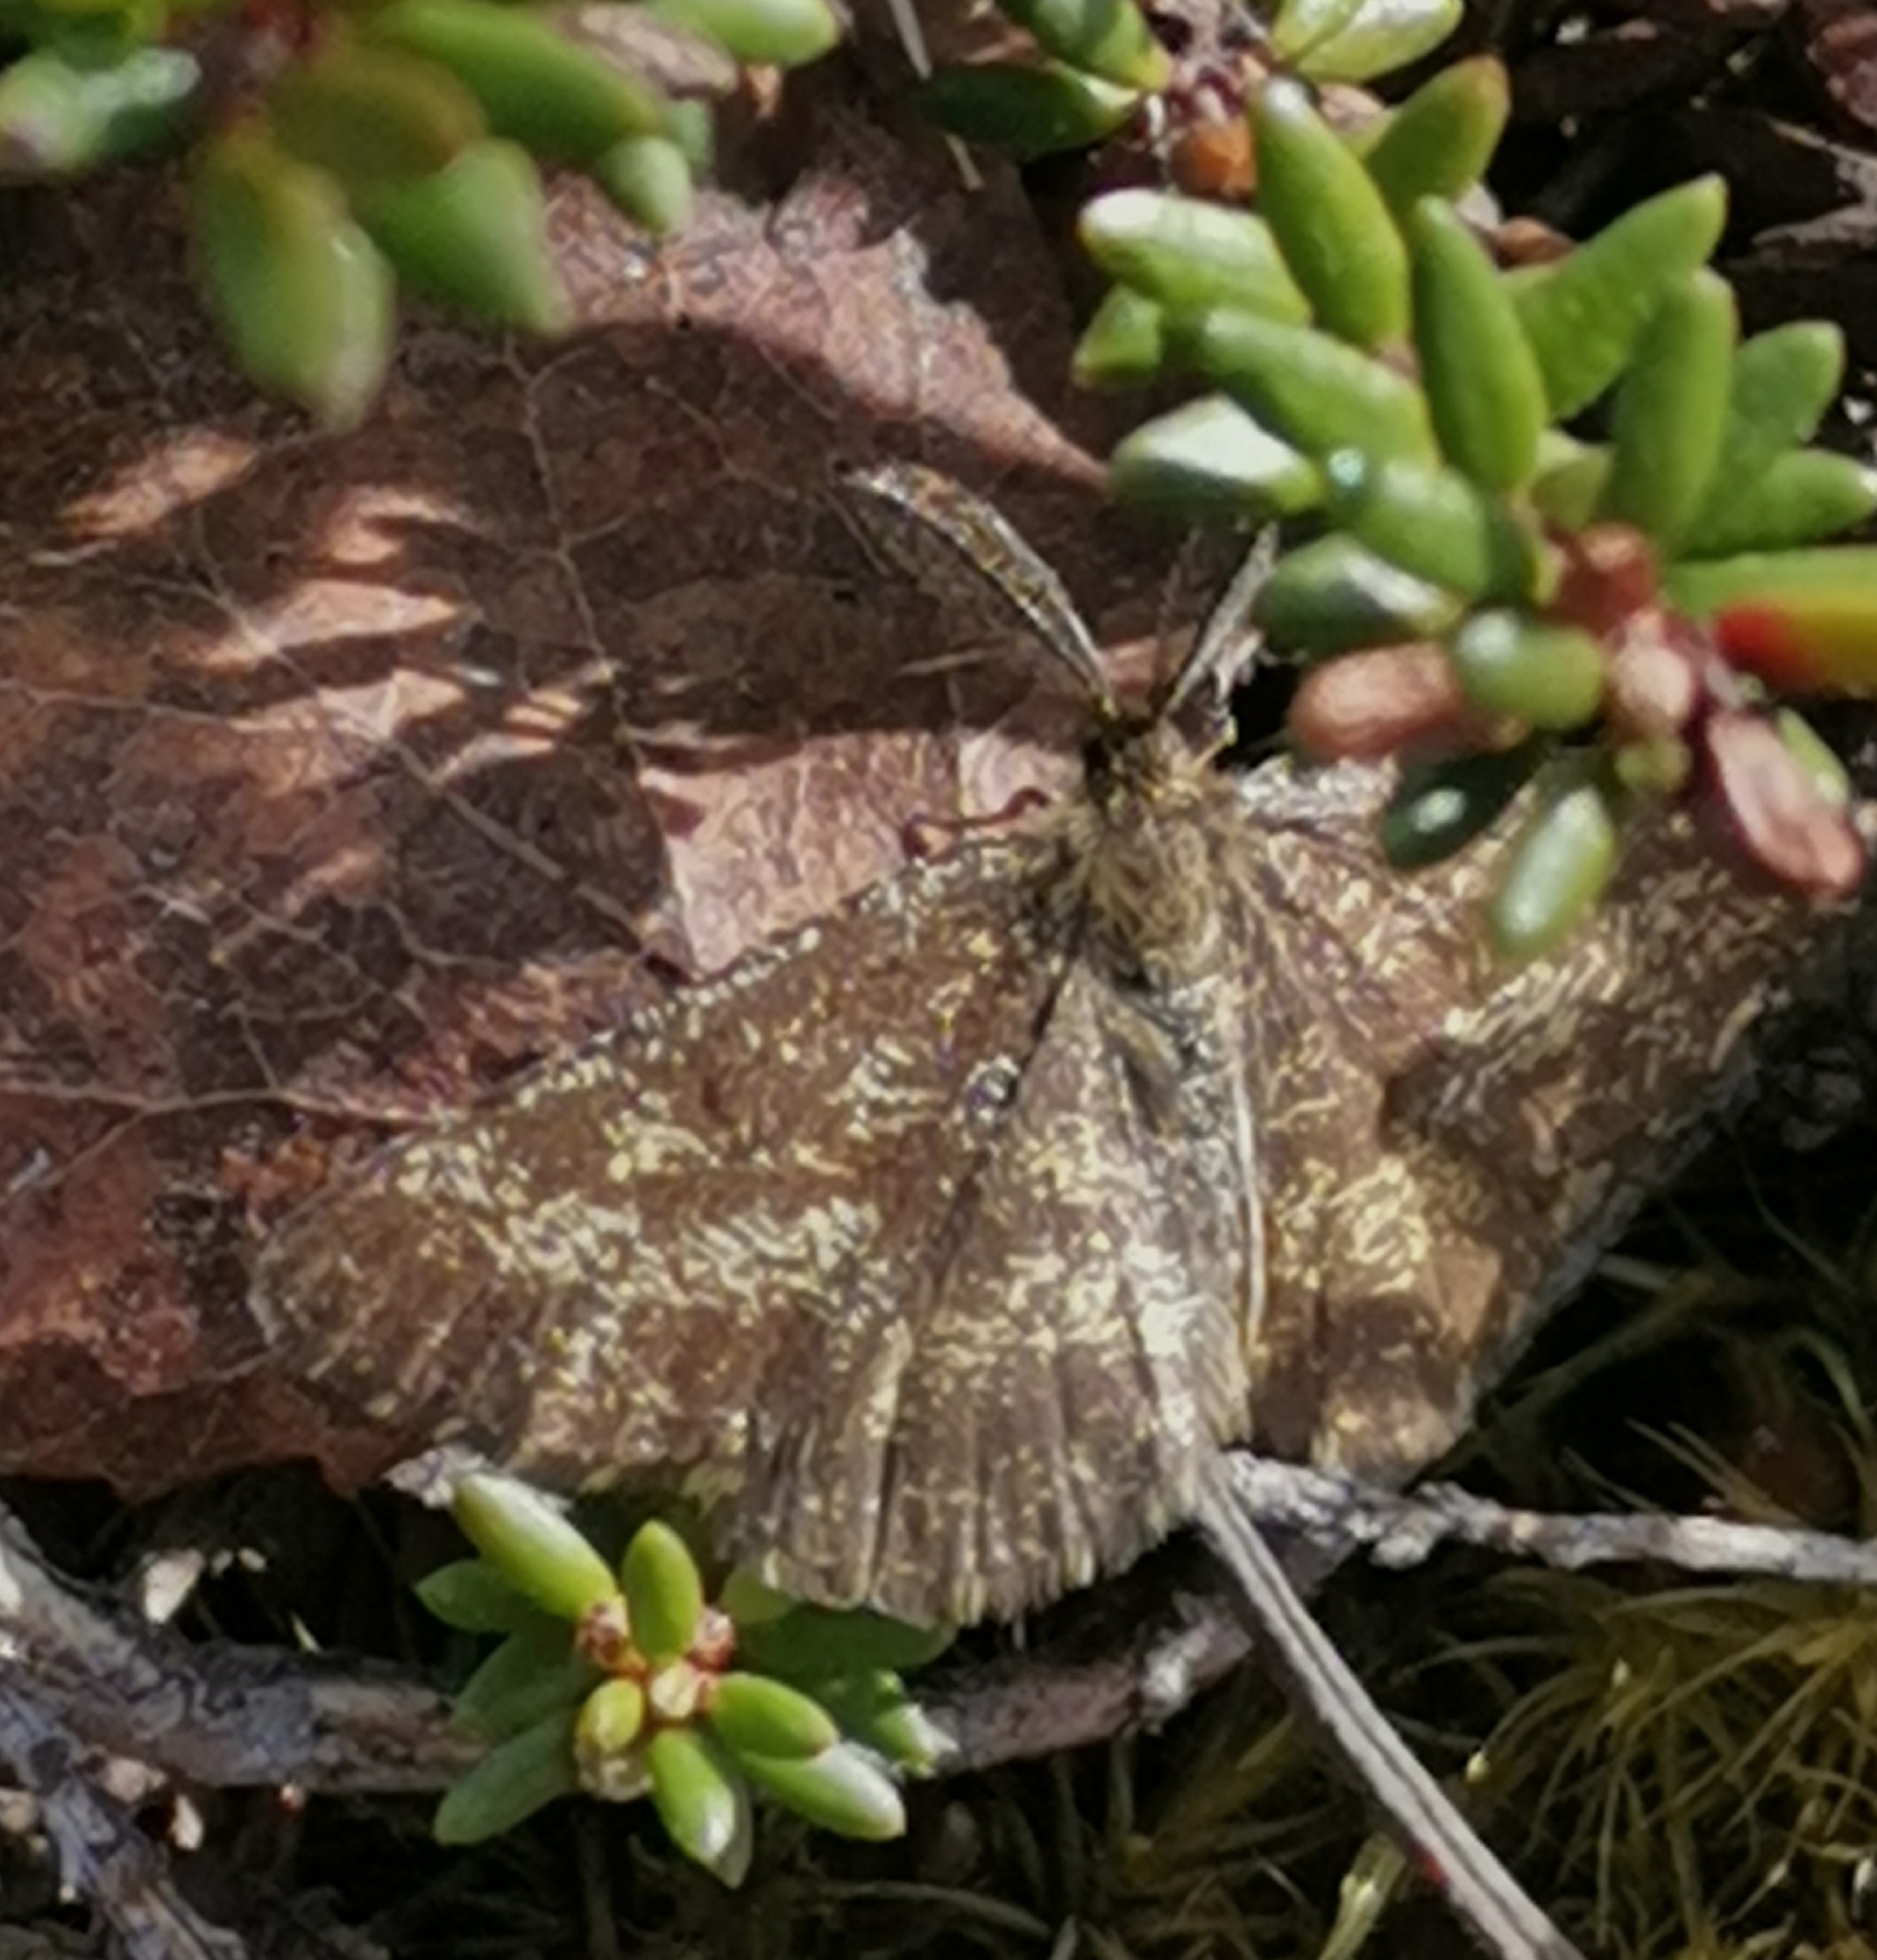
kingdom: Animalia
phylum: Arthropoda
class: Insecta
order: Lepidoptera
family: Geometridae
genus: Ematurga
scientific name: Ematurga atomaria
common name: Common heath
